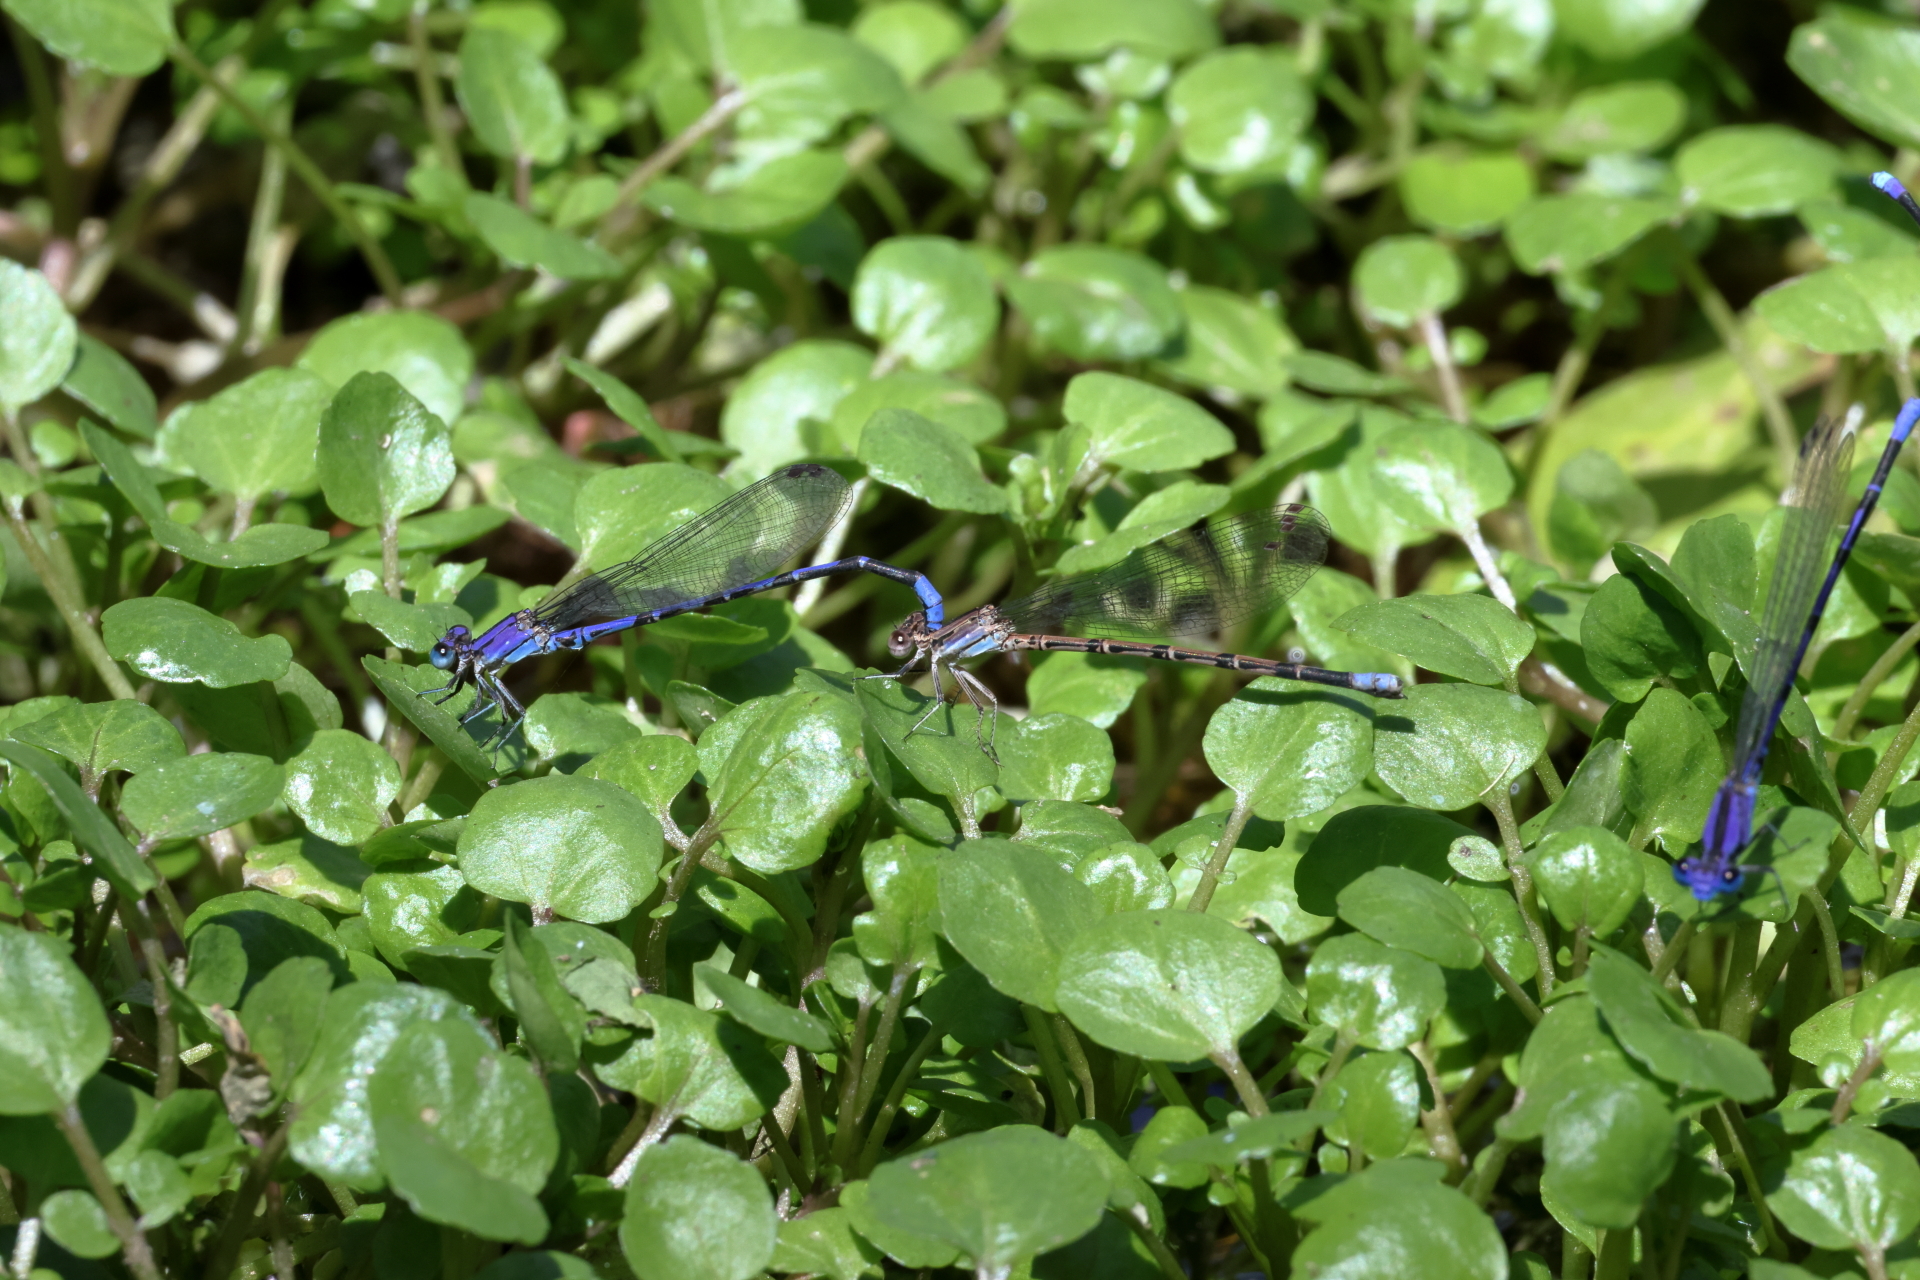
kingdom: Animalia
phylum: Arthropoda
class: Insecta
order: Odonata
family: Coenagrionidae
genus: Argia
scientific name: Argia extranea
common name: Spine-tipped dancer
